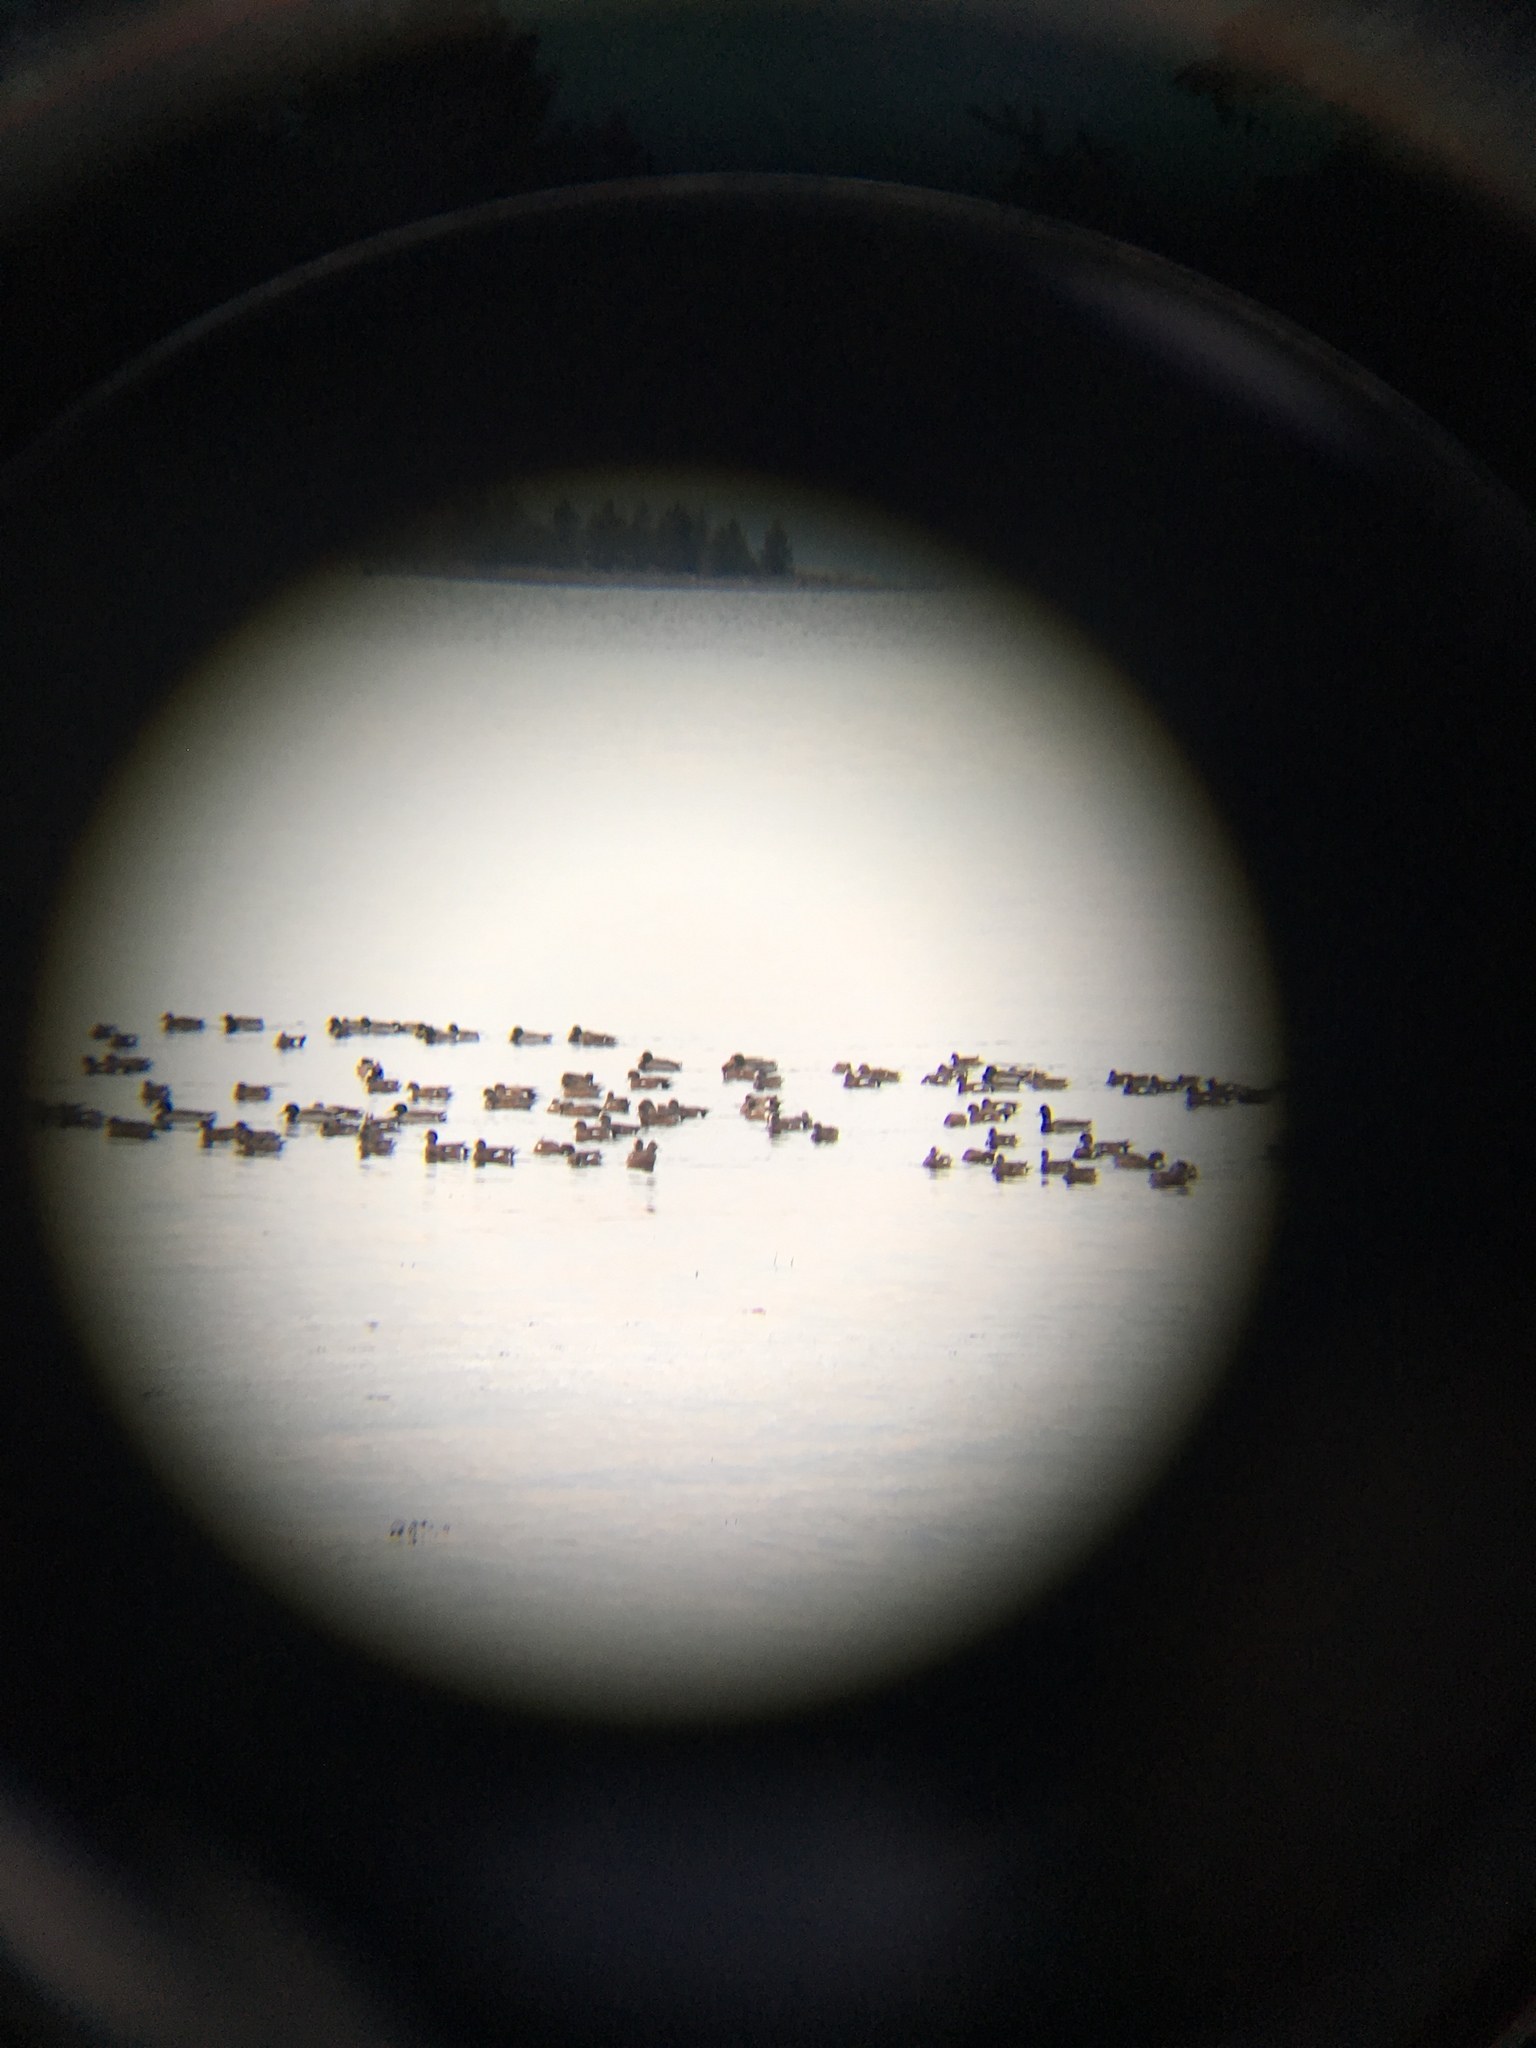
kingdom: Animalia
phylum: Chordata
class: Aves
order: Anseriformes
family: Anatidae
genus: Anas
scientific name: Anas platyrhynchos
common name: Mallard
